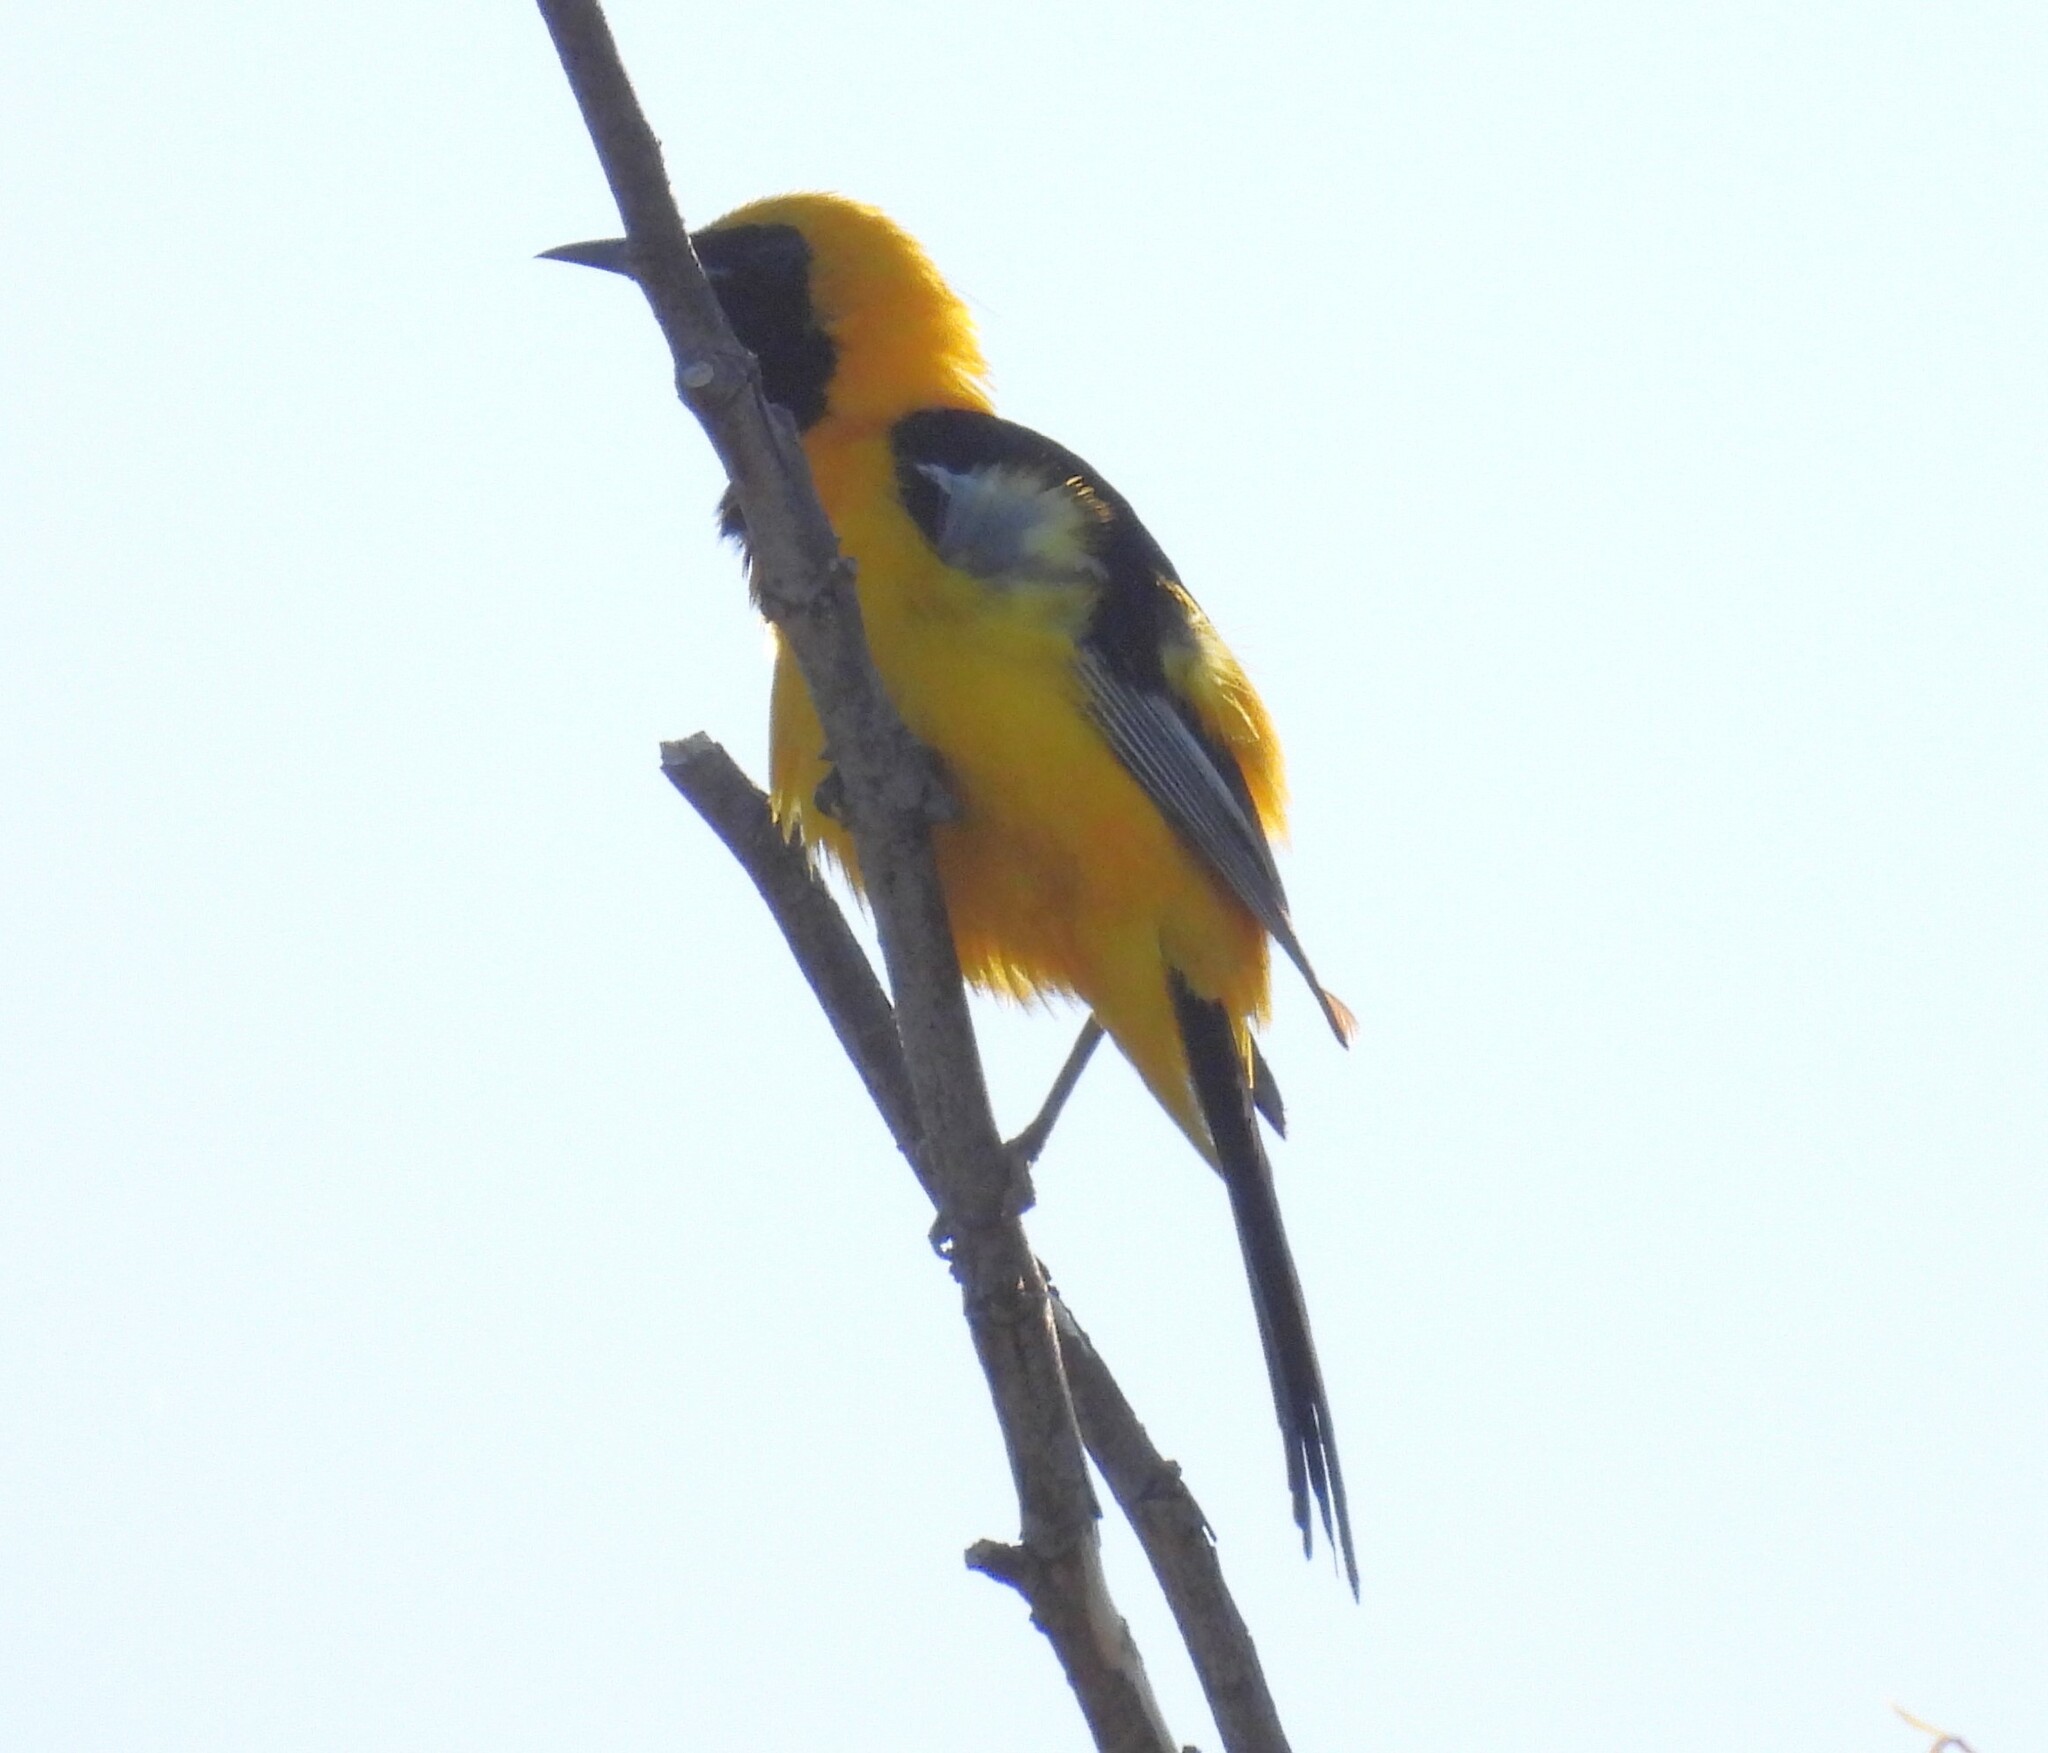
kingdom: Animalia
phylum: Chordata
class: Aves
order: Passeriformes
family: Icteridae
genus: Icterus
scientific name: Icterus cucullatus
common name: Hooded oriole
